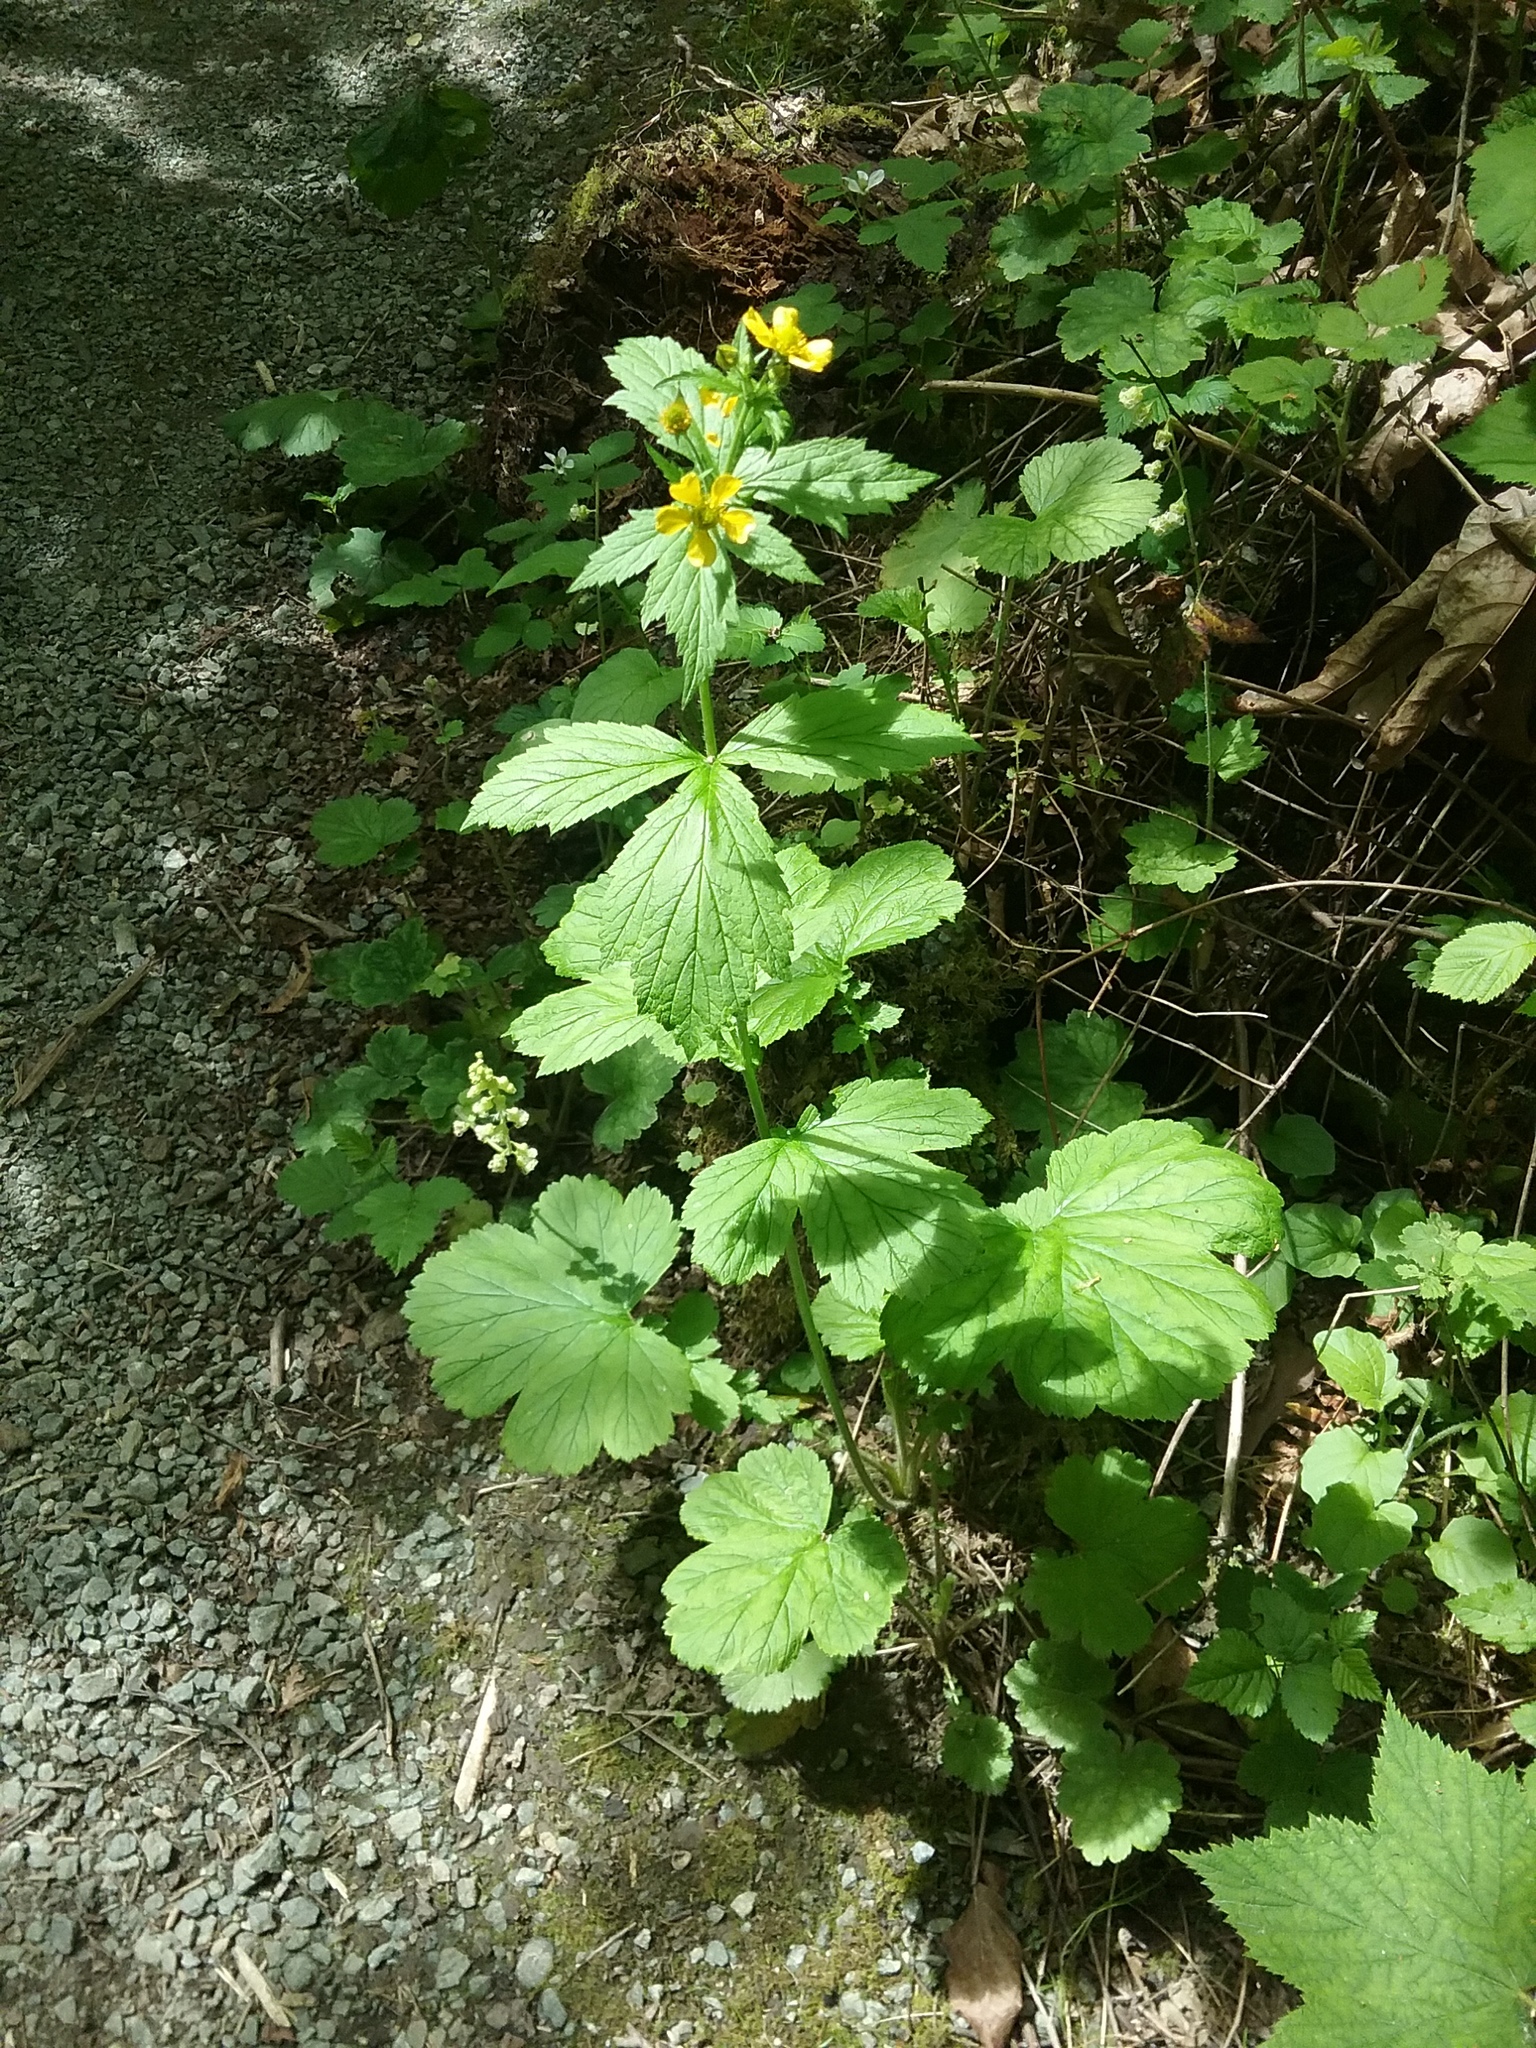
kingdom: Plantae
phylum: Tracheophyta
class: Magnoliopsida
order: Rosales
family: Rosaceae
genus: Geum
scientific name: Geum macrophyllum
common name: Large-leaved avens
